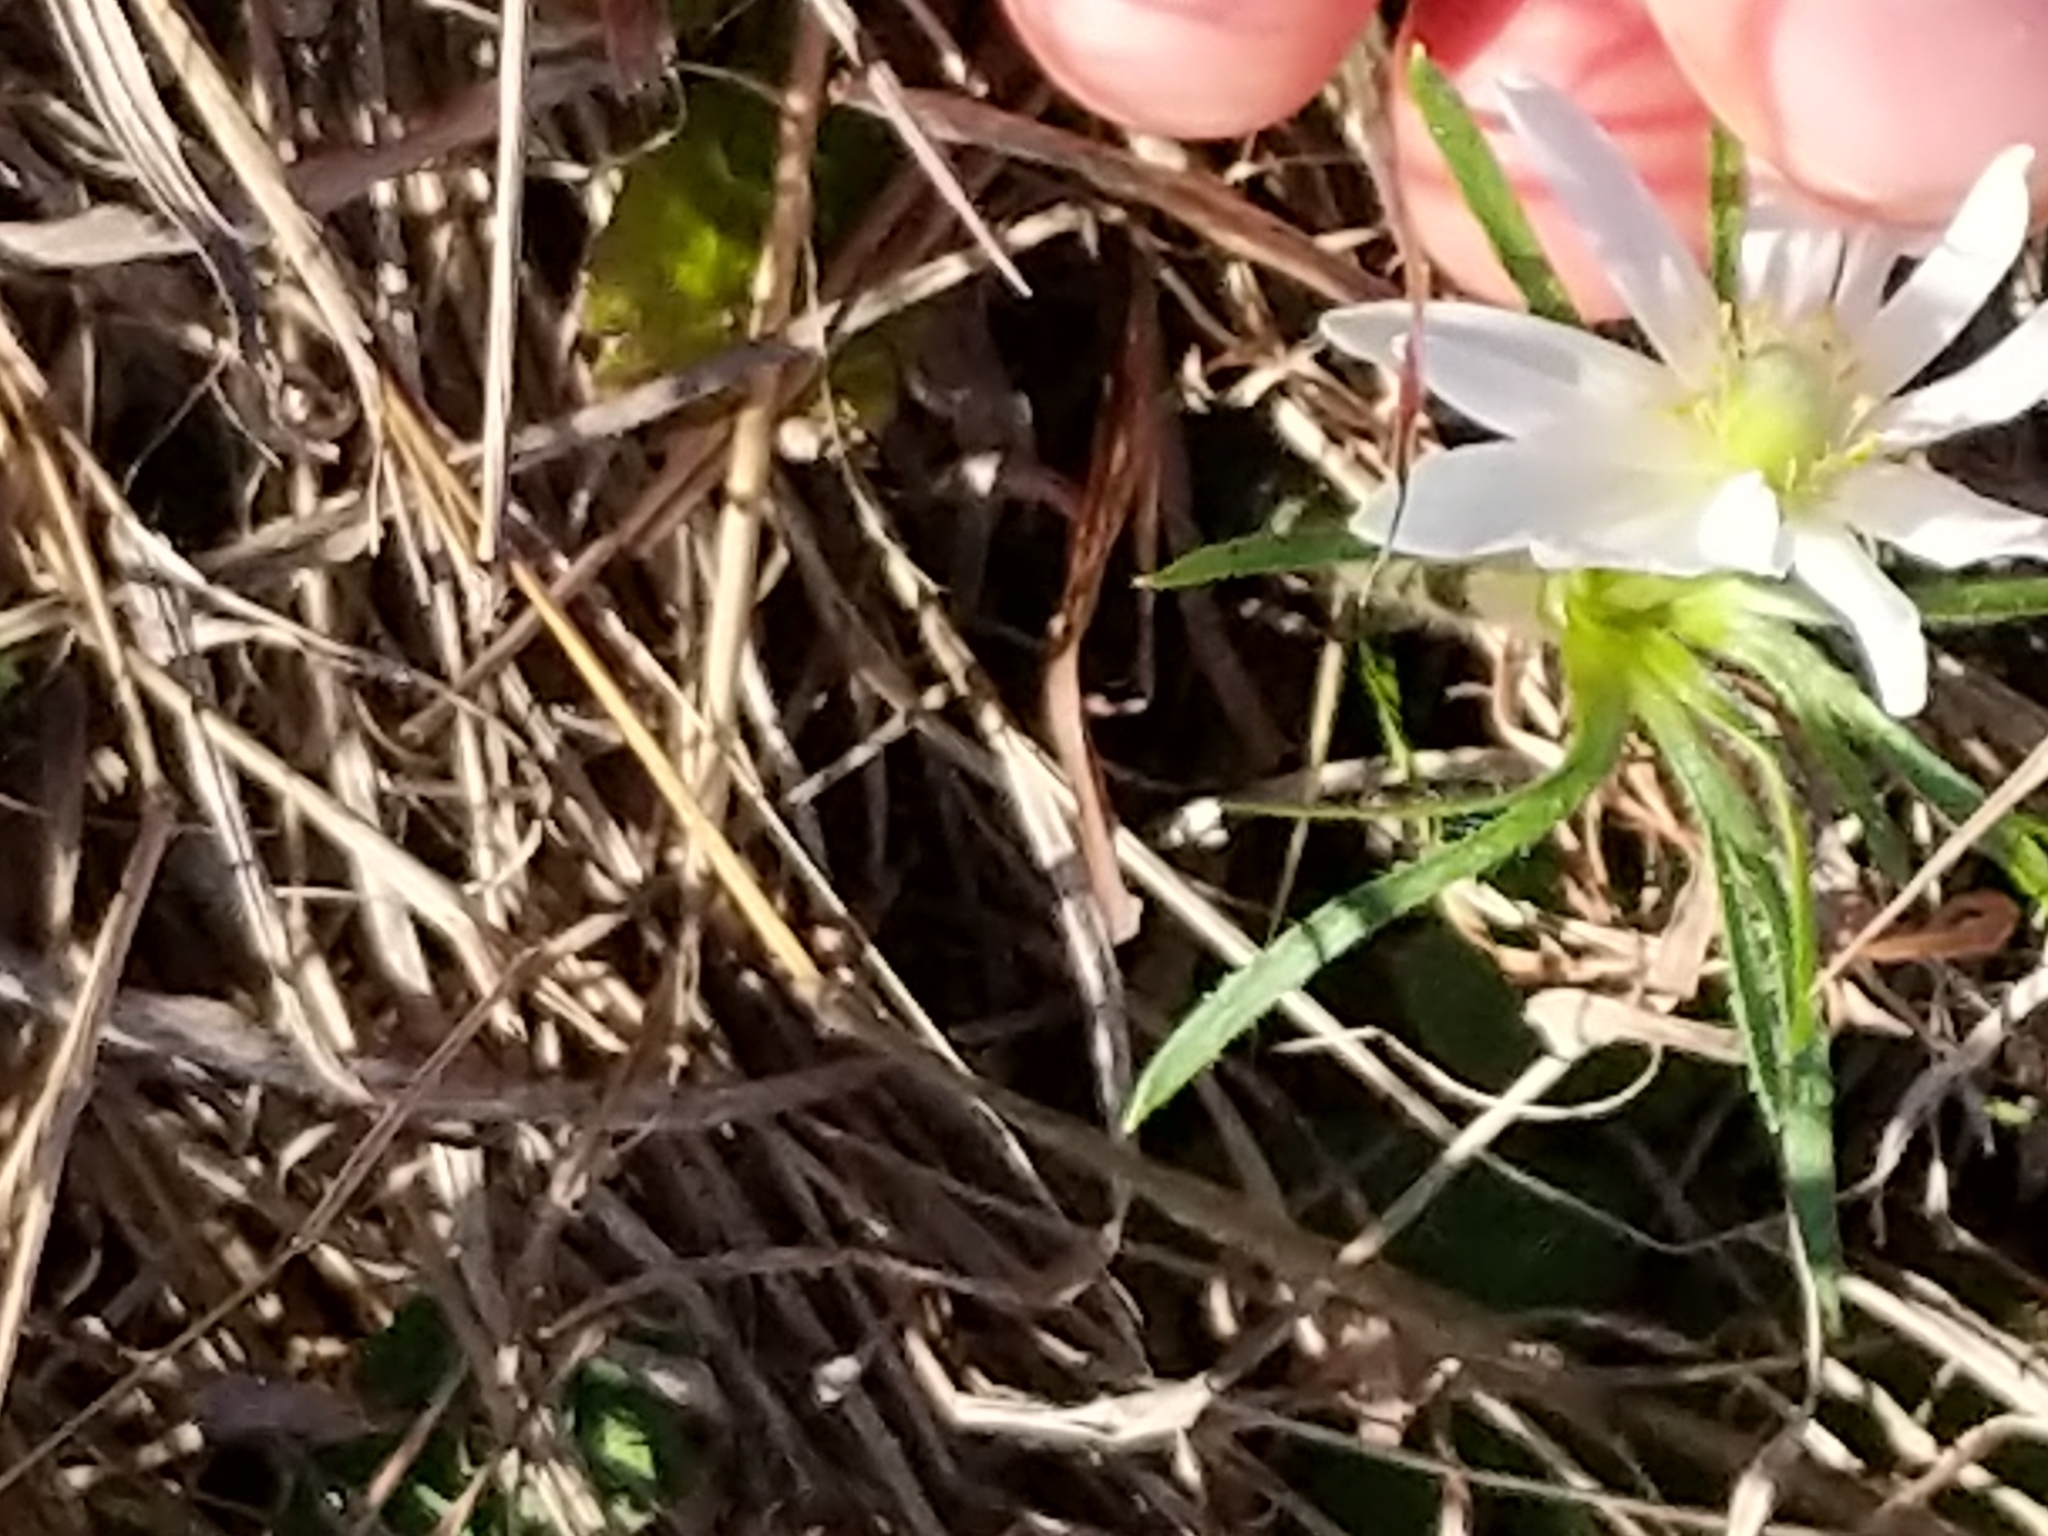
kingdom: Plantae
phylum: Tracheophyta
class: Magnoliopsida
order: Ranunculales
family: Ranunculaceae
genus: Anemone
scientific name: Anemone berlandieri
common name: Ten-petal anemone
